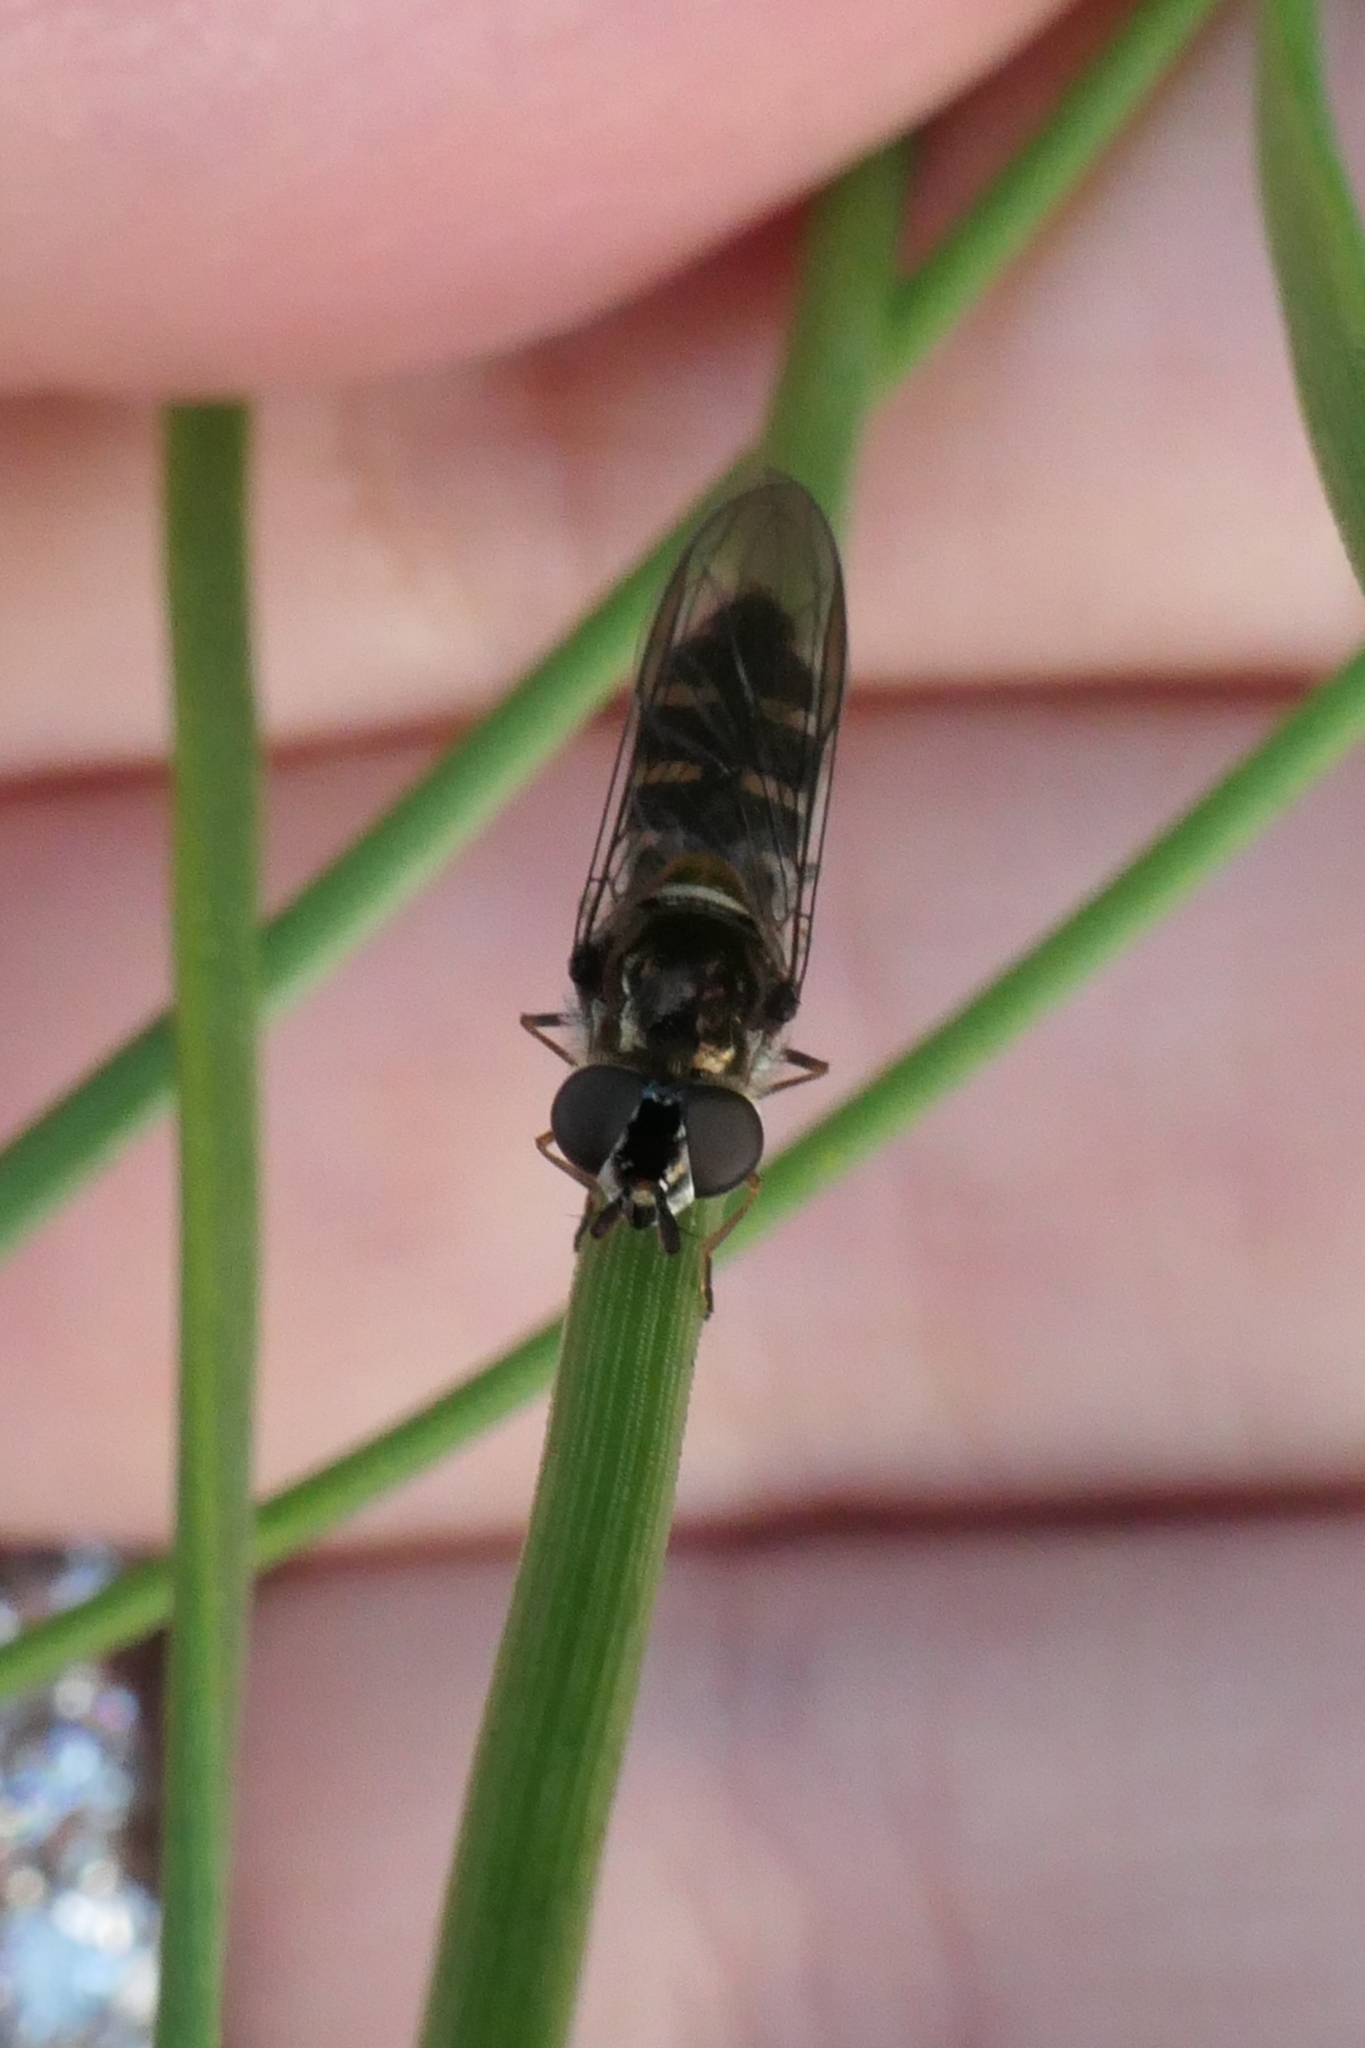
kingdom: Animalia
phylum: Arthropoda
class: Insecta
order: Diptera
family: Syrphidae
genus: Melangyna
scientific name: Melangyna novaezelandiae
